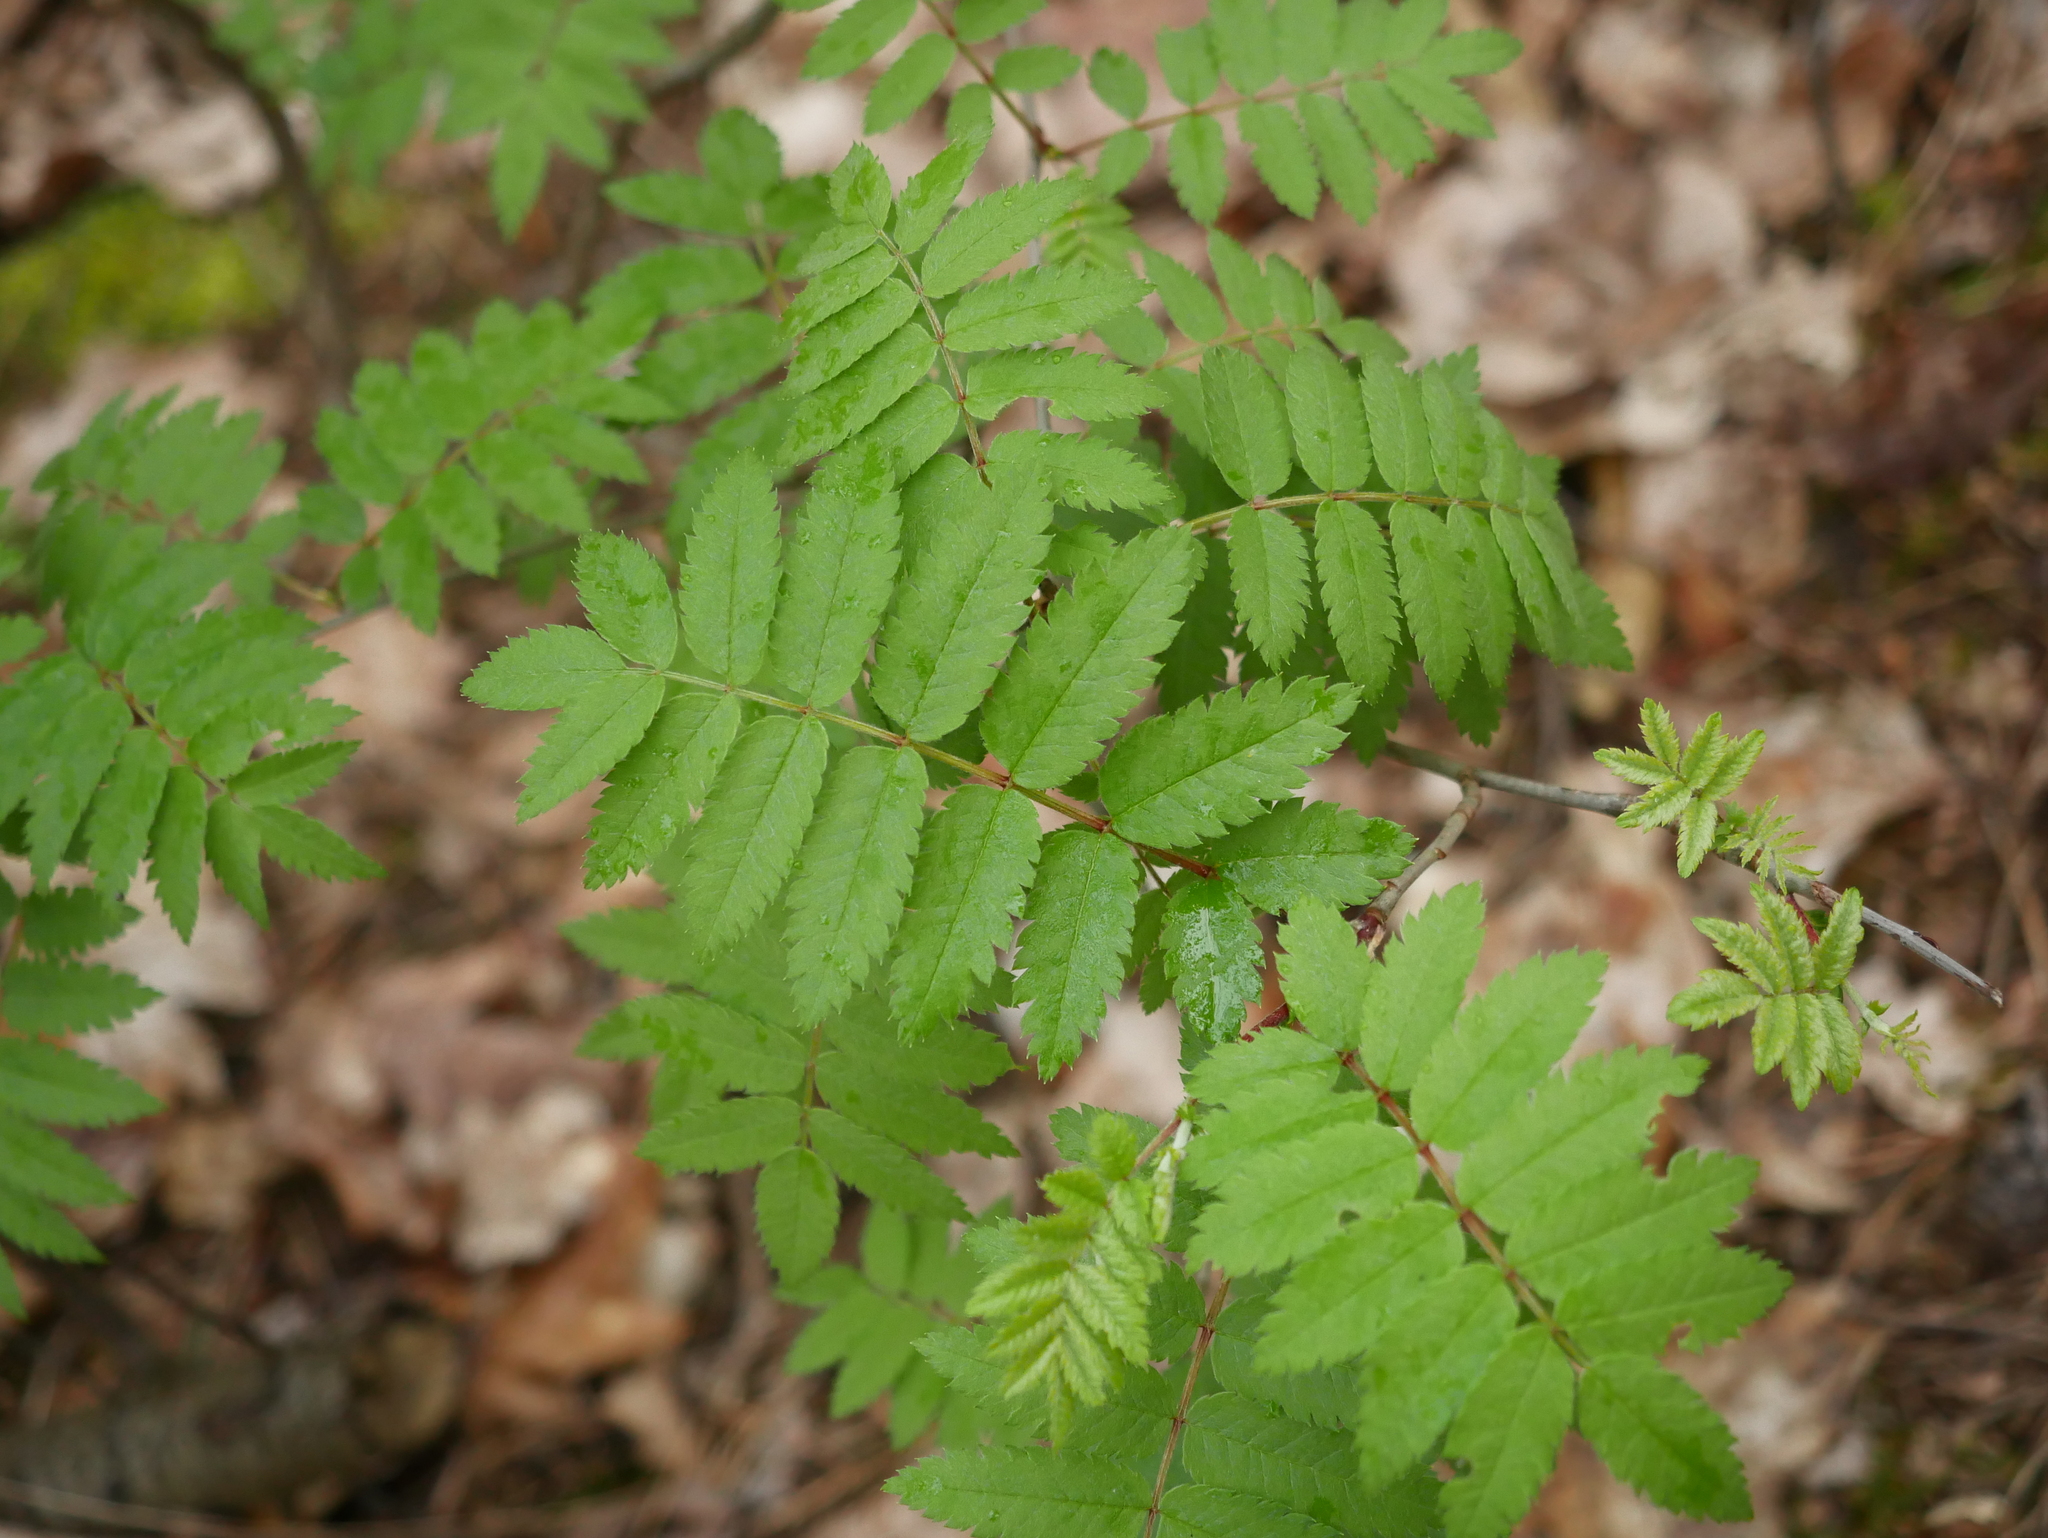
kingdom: Plantae
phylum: Tracheophyta
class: Magnoliopsida
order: Rosales
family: Rosaceae
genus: Sorbus
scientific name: Sorbus aucuparia
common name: Rowan
